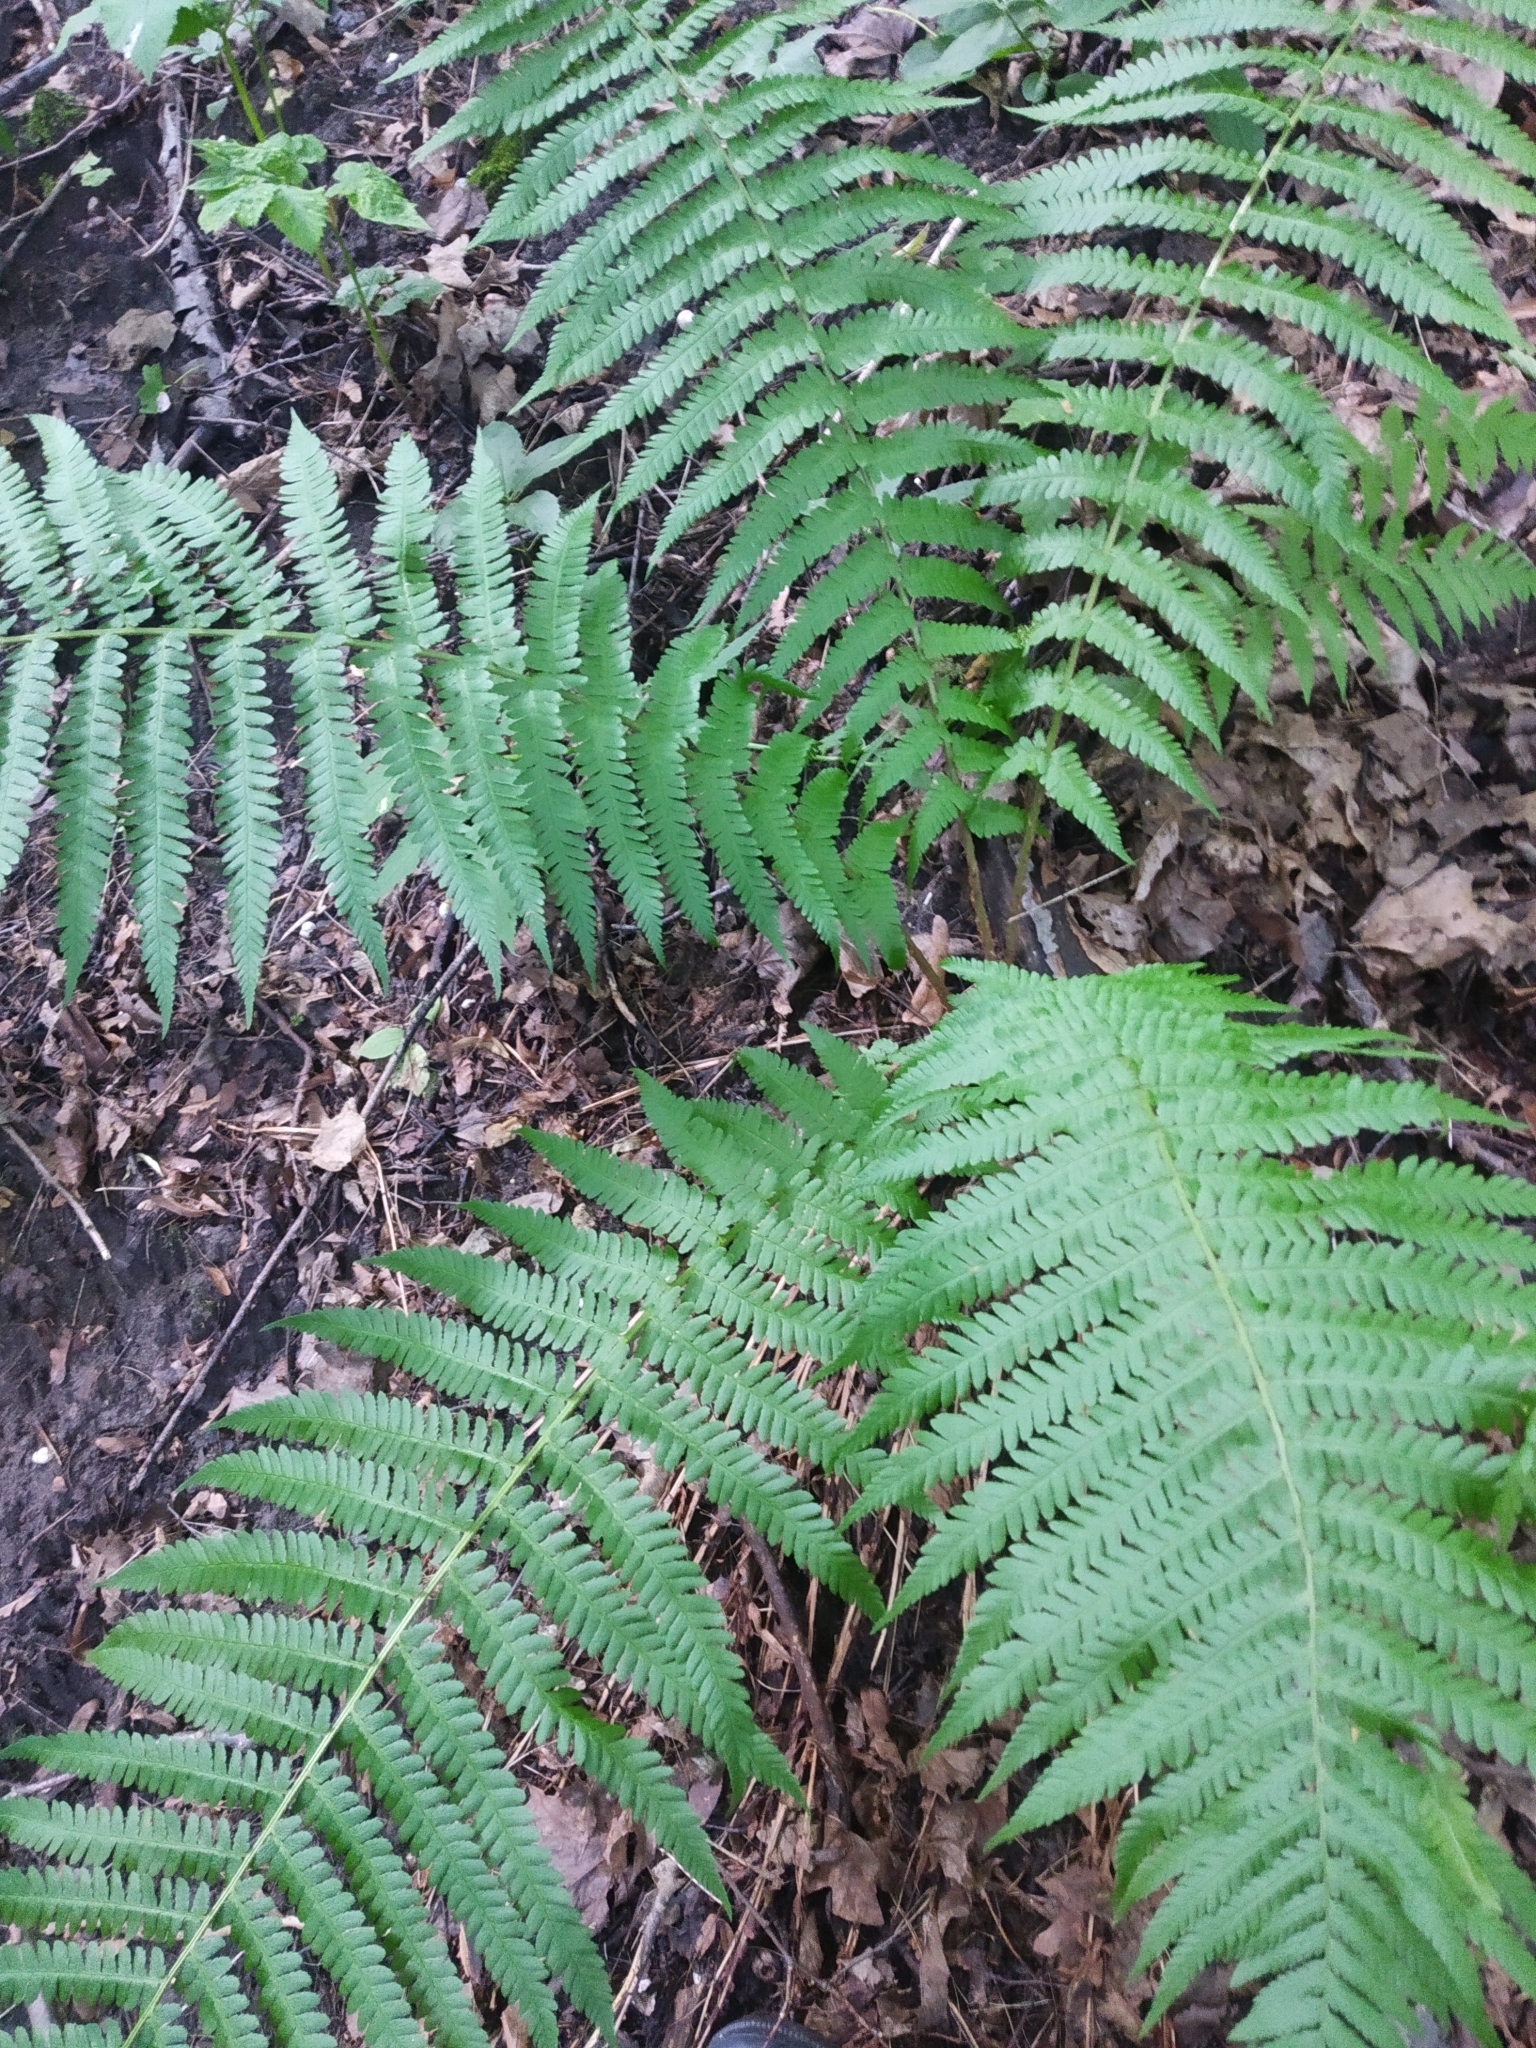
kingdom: Plantae
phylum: Tracheophyta
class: Polypodiopsida
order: Polypodiales
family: Dryopteridaceae
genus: Dryopteris
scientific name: Dryopteris filix-mas
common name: Male fern
